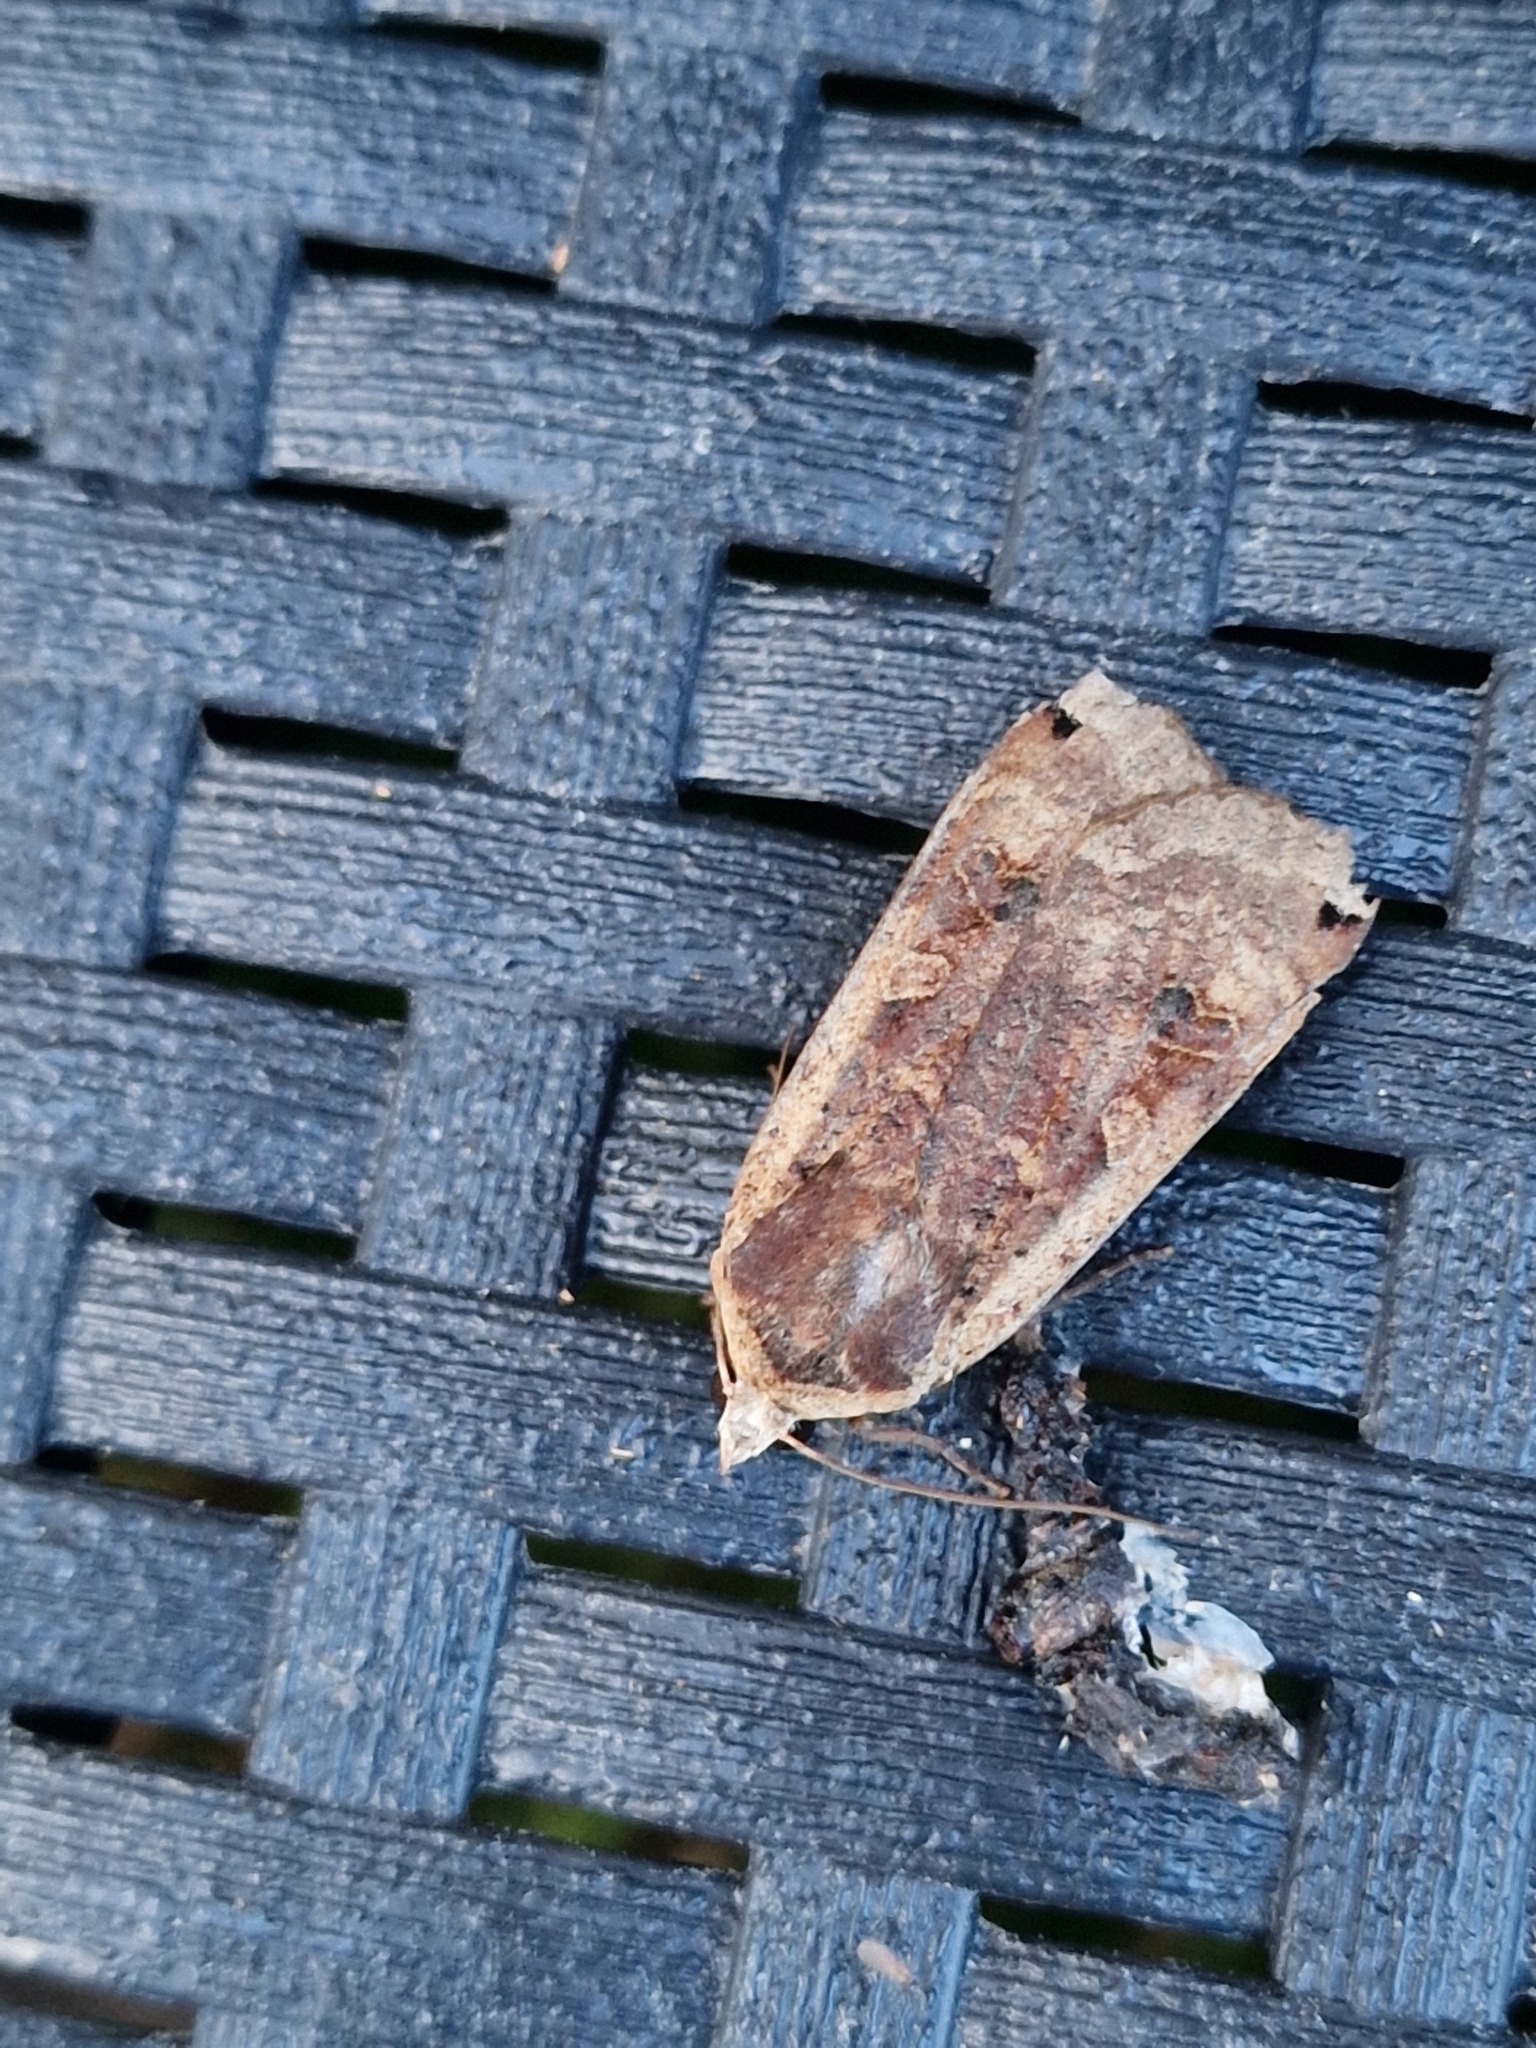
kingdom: Animalia
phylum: Arthropoda
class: Insecta
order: Lepidoptera
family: Noctuidae
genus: Noctua
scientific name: Noctua pronuba
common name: Large yellow underwing
